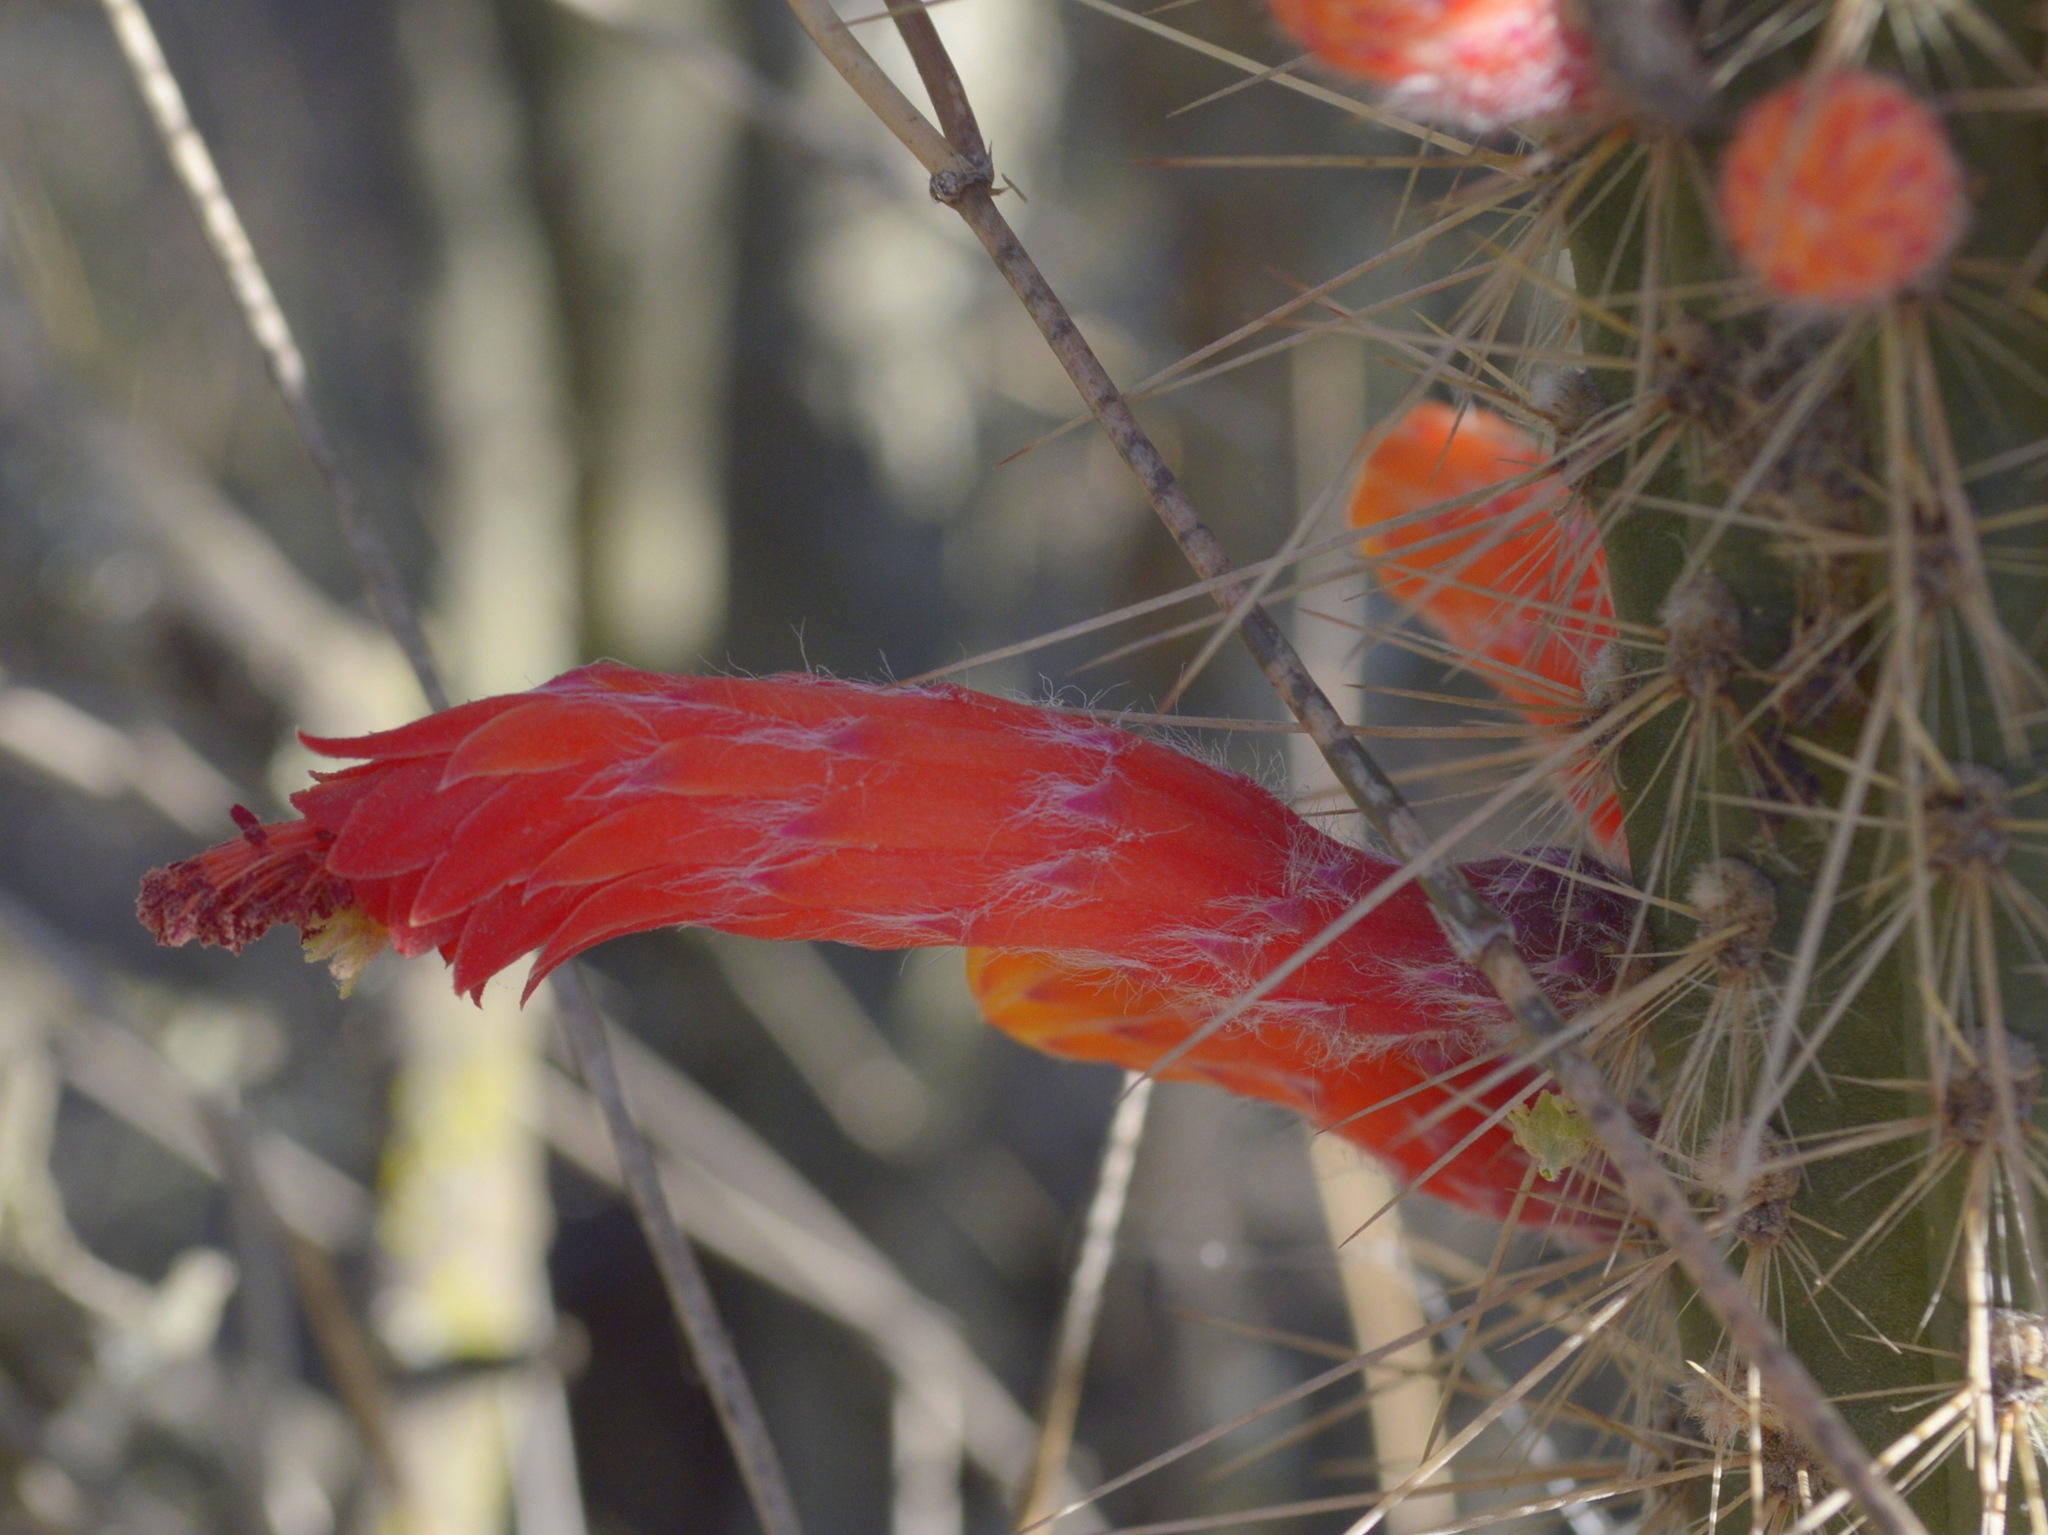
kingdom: Plantae
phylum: Tracheophyta
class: Magnoliopsida
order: Caryophyllales
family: Cactaceae
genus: Cleistocactus
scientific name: Cleistocactus baumannii
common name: Scarlet-bugler
